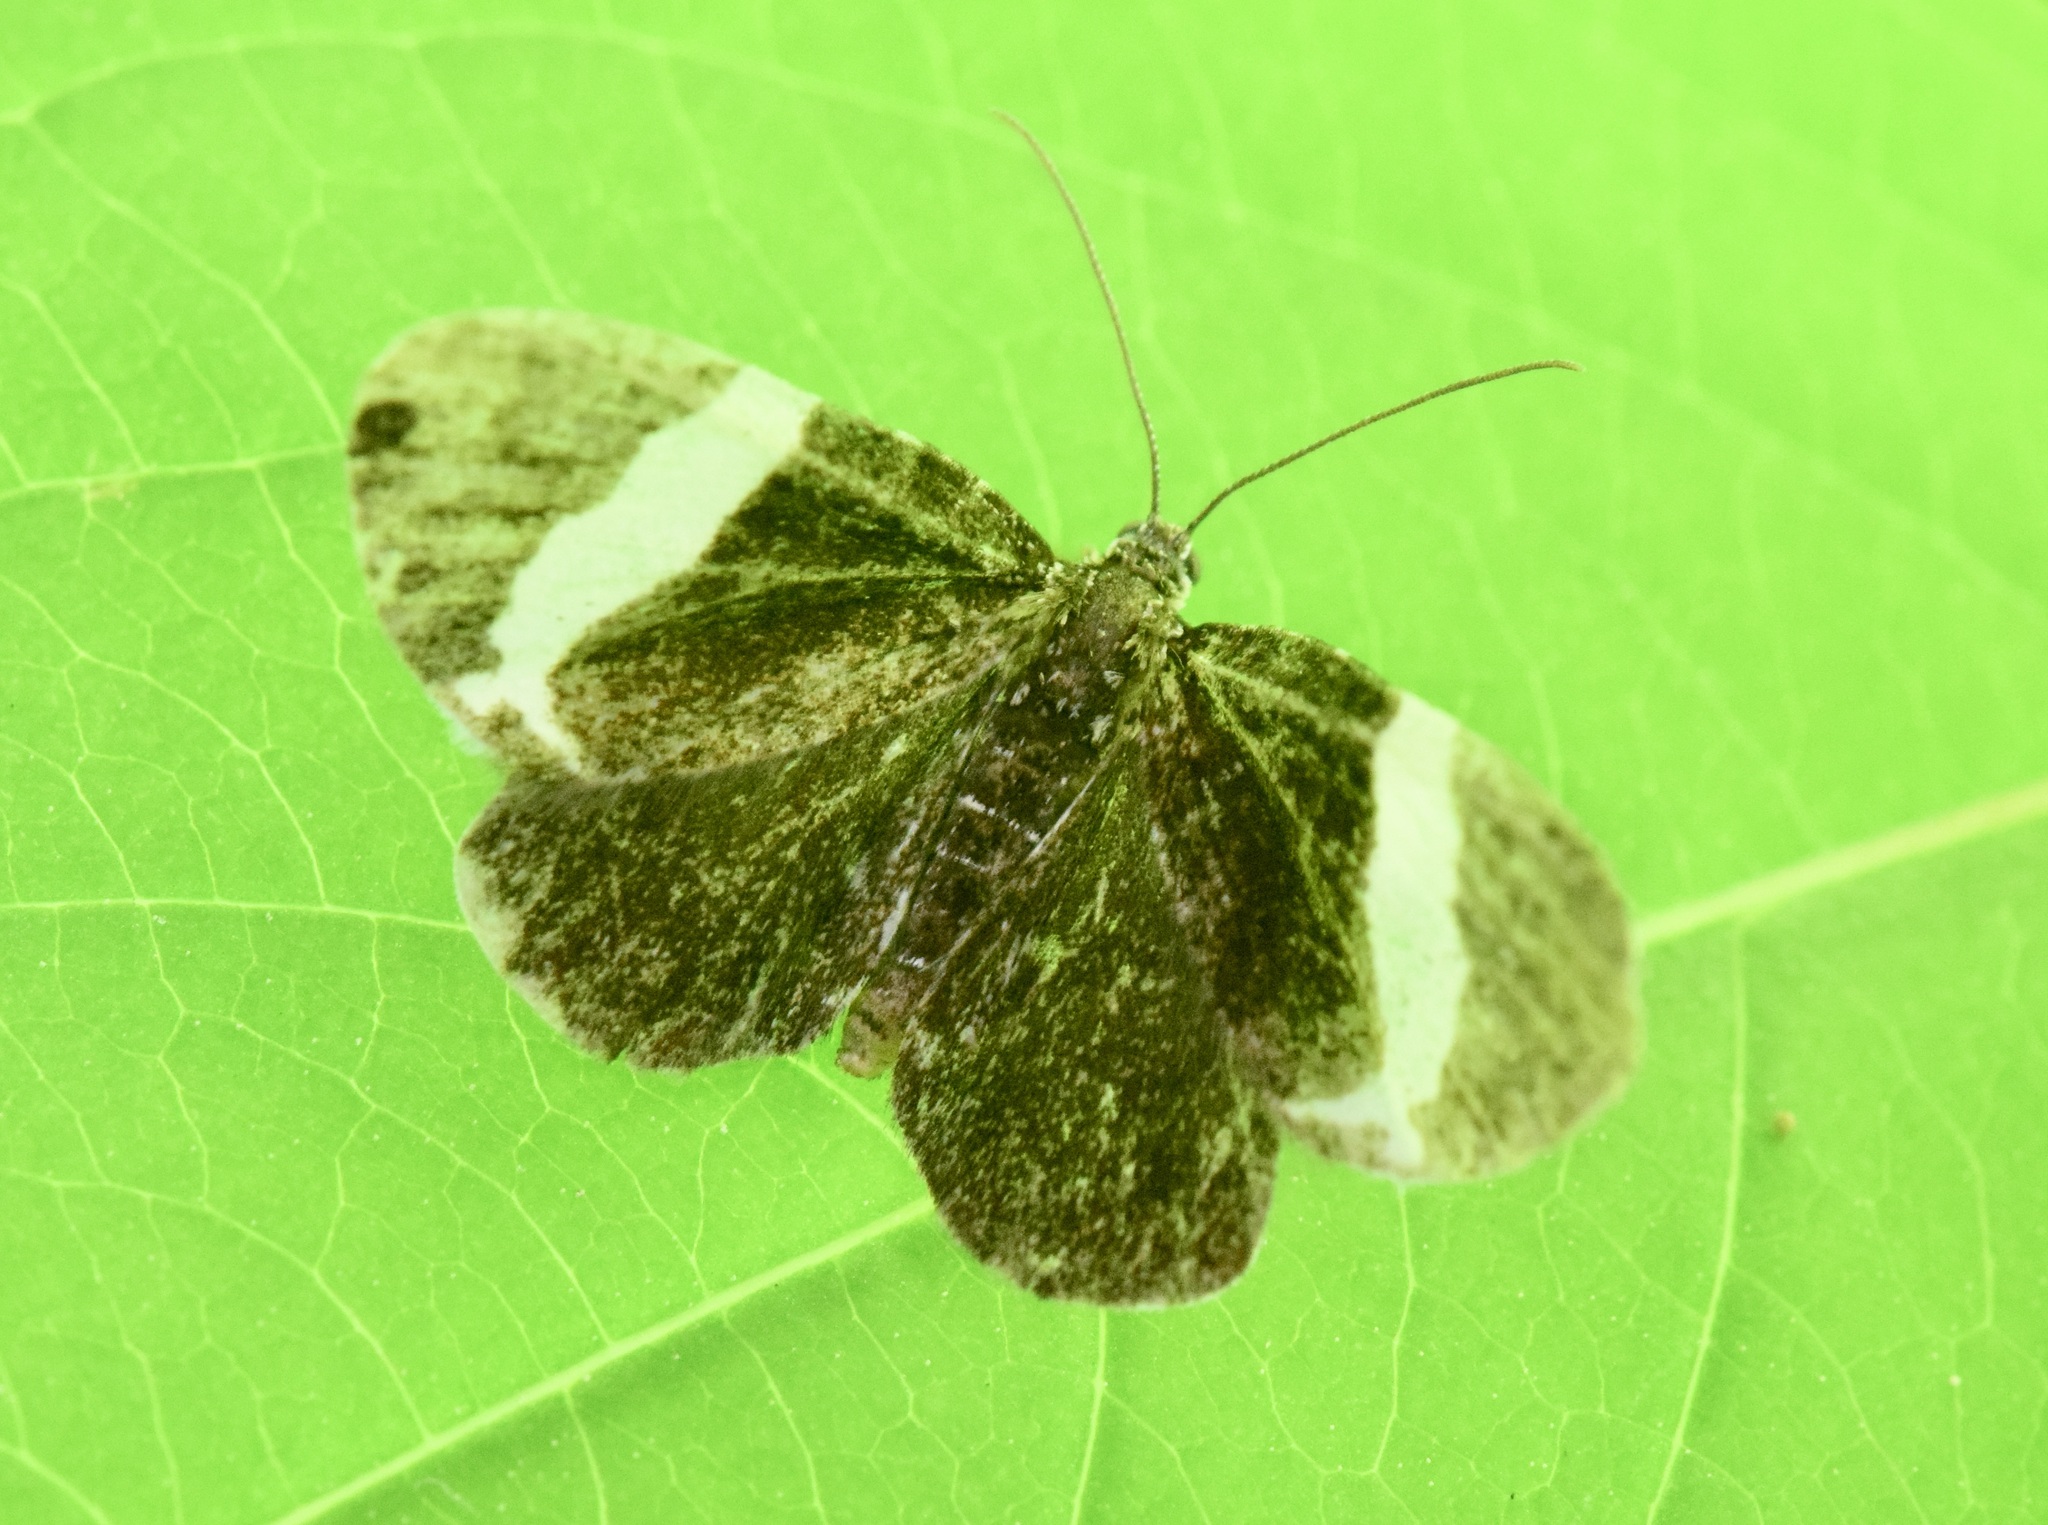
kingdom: Animalia
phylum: Arthropoda
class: Insecta
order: Lepidoptera
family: Geometridae
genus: Trichodezia
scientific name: Trichodezia albovittata
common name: White striped black
